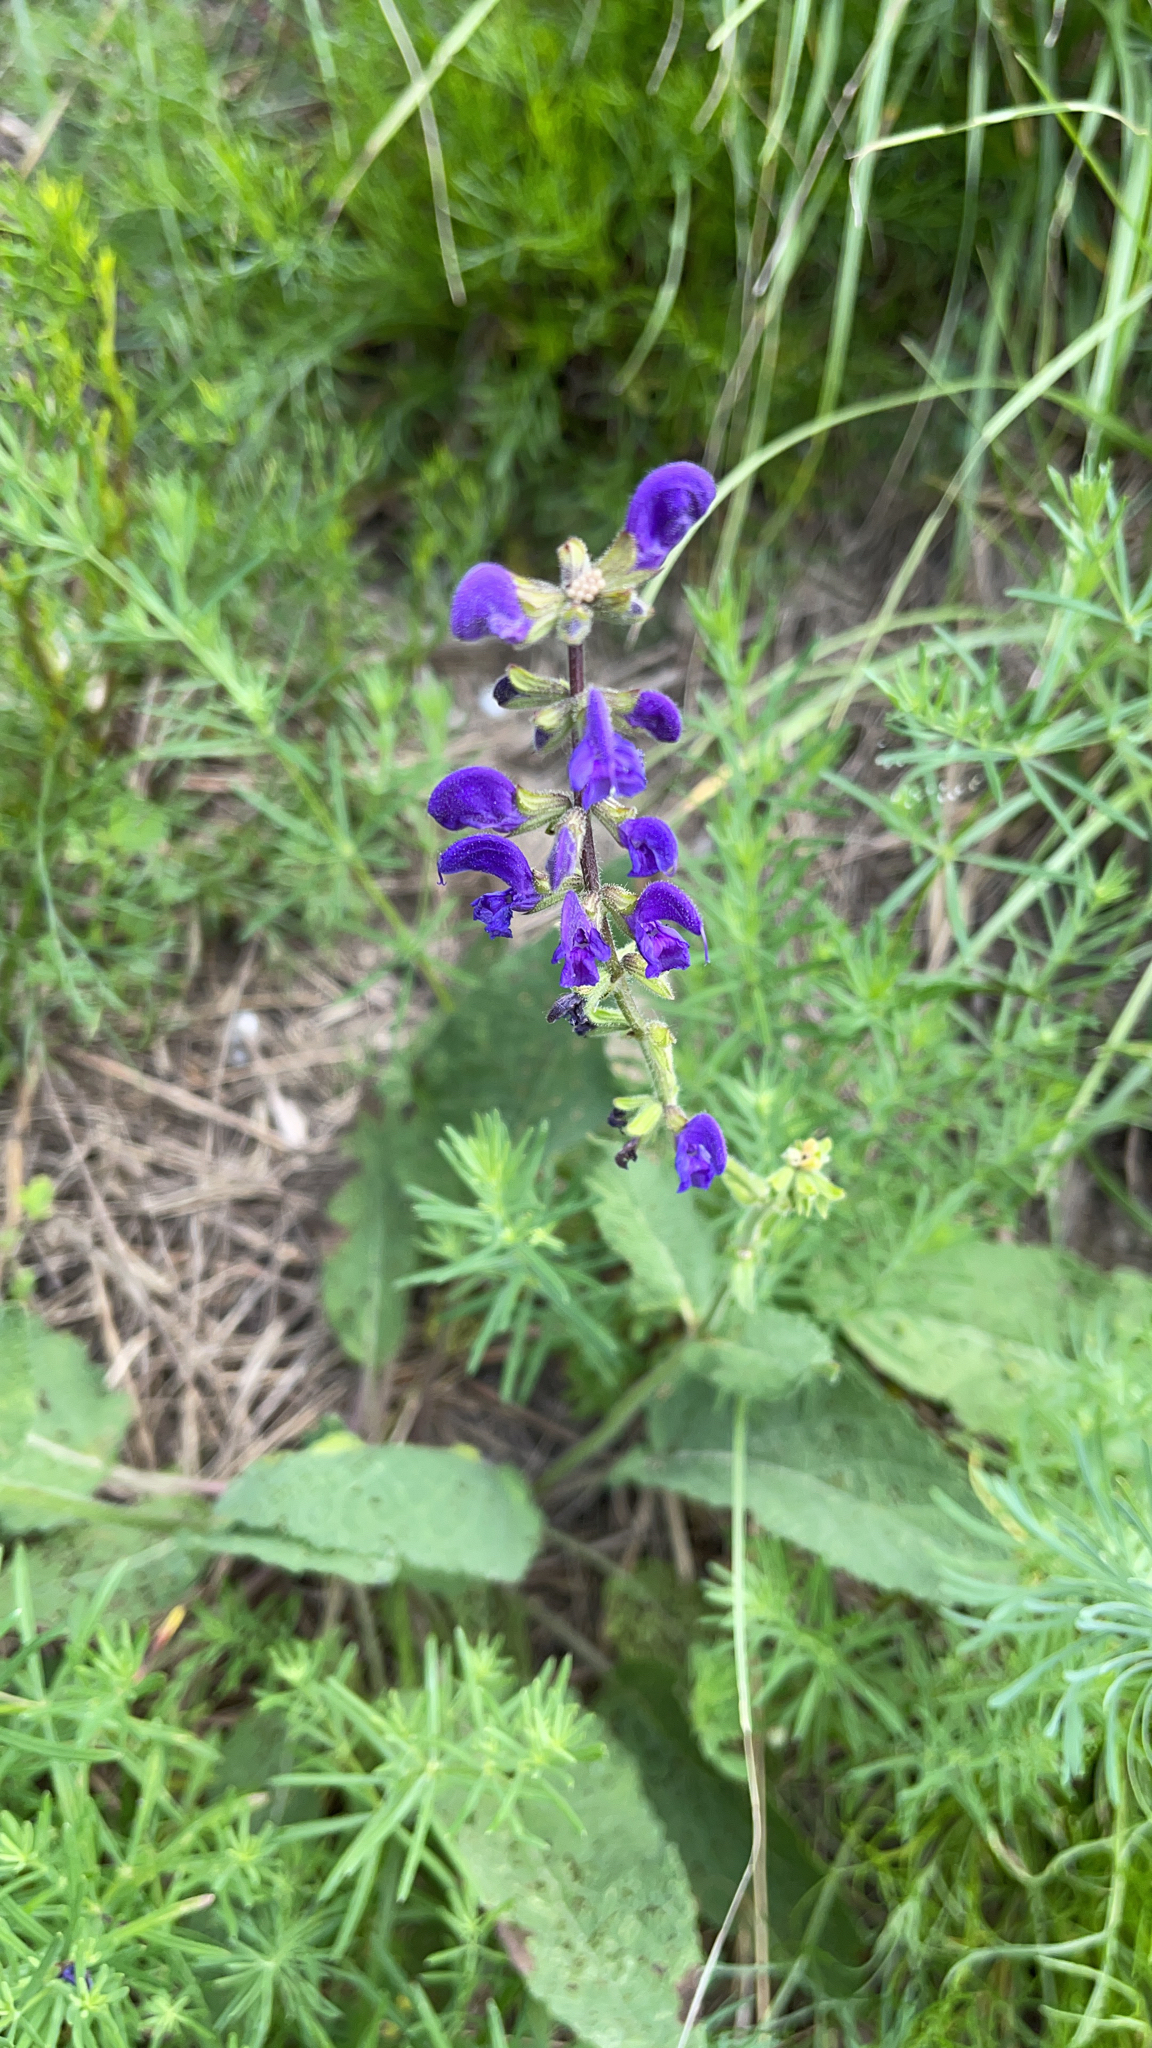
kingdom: Plantae
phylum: Tracheophyta
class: Magnoliopsida
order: Lamiales
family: Lamiaceae
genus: Salvia
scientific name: Salvia pratensis
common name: Meadow sage
